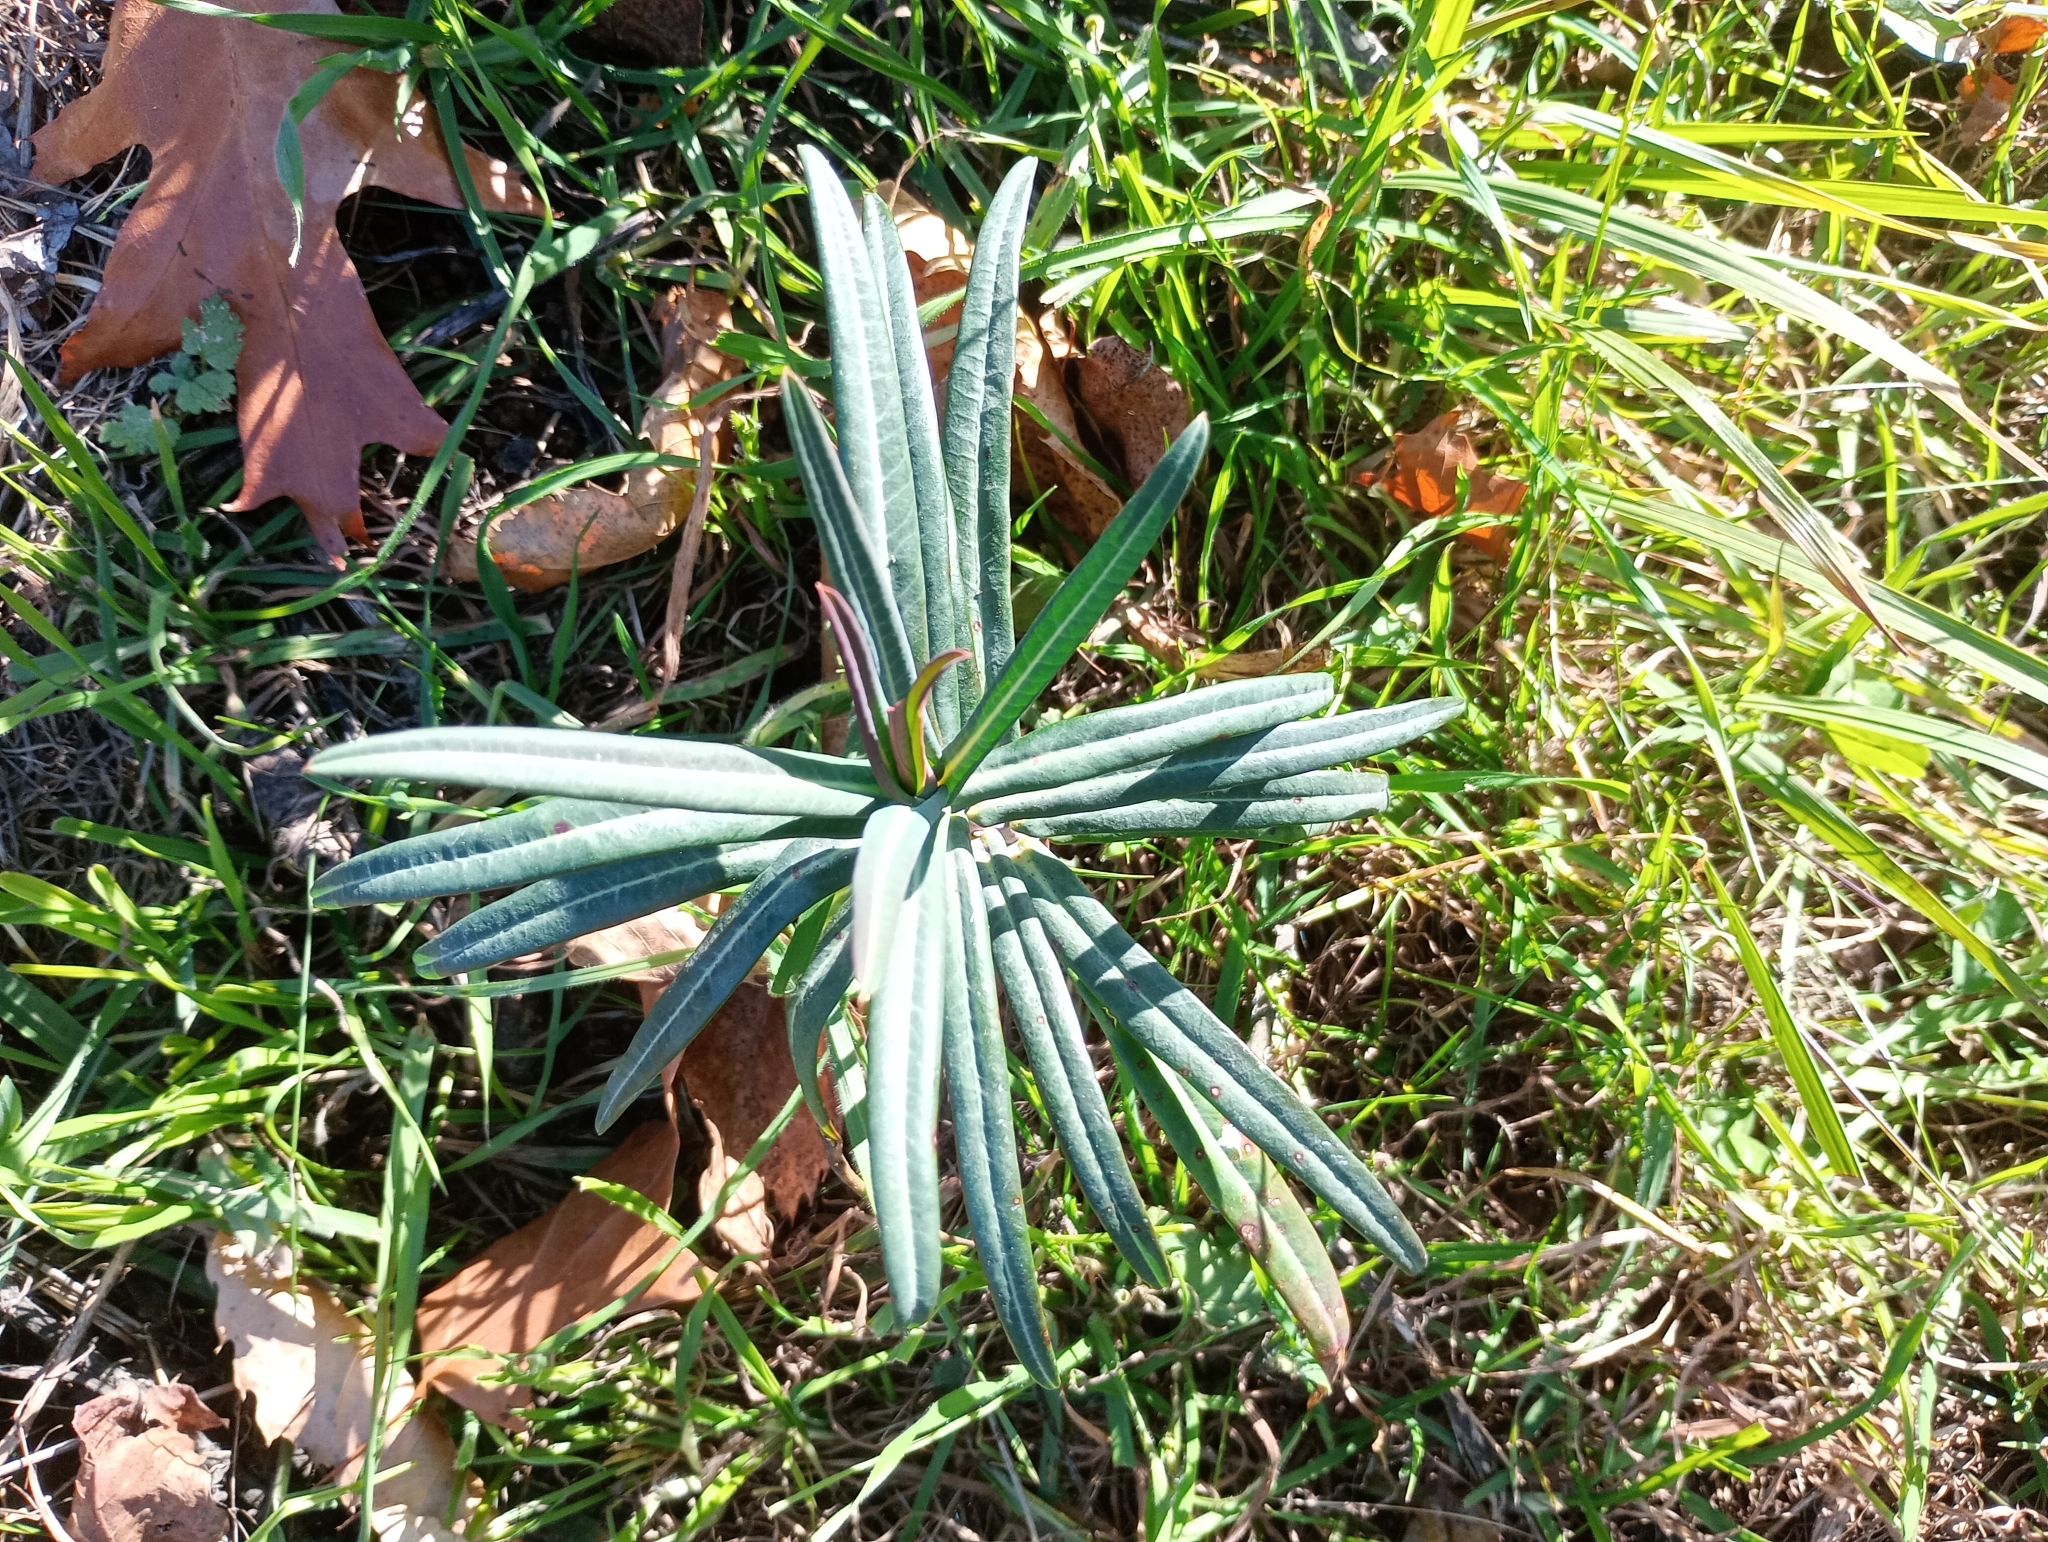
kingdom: Plantae
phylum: Tracheophyta
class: Magnoliopsida
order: Malpighiales
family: Euphorbiaceae
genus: Euphorbia
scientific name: Euphorbia lathyris
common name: Caper spurge
